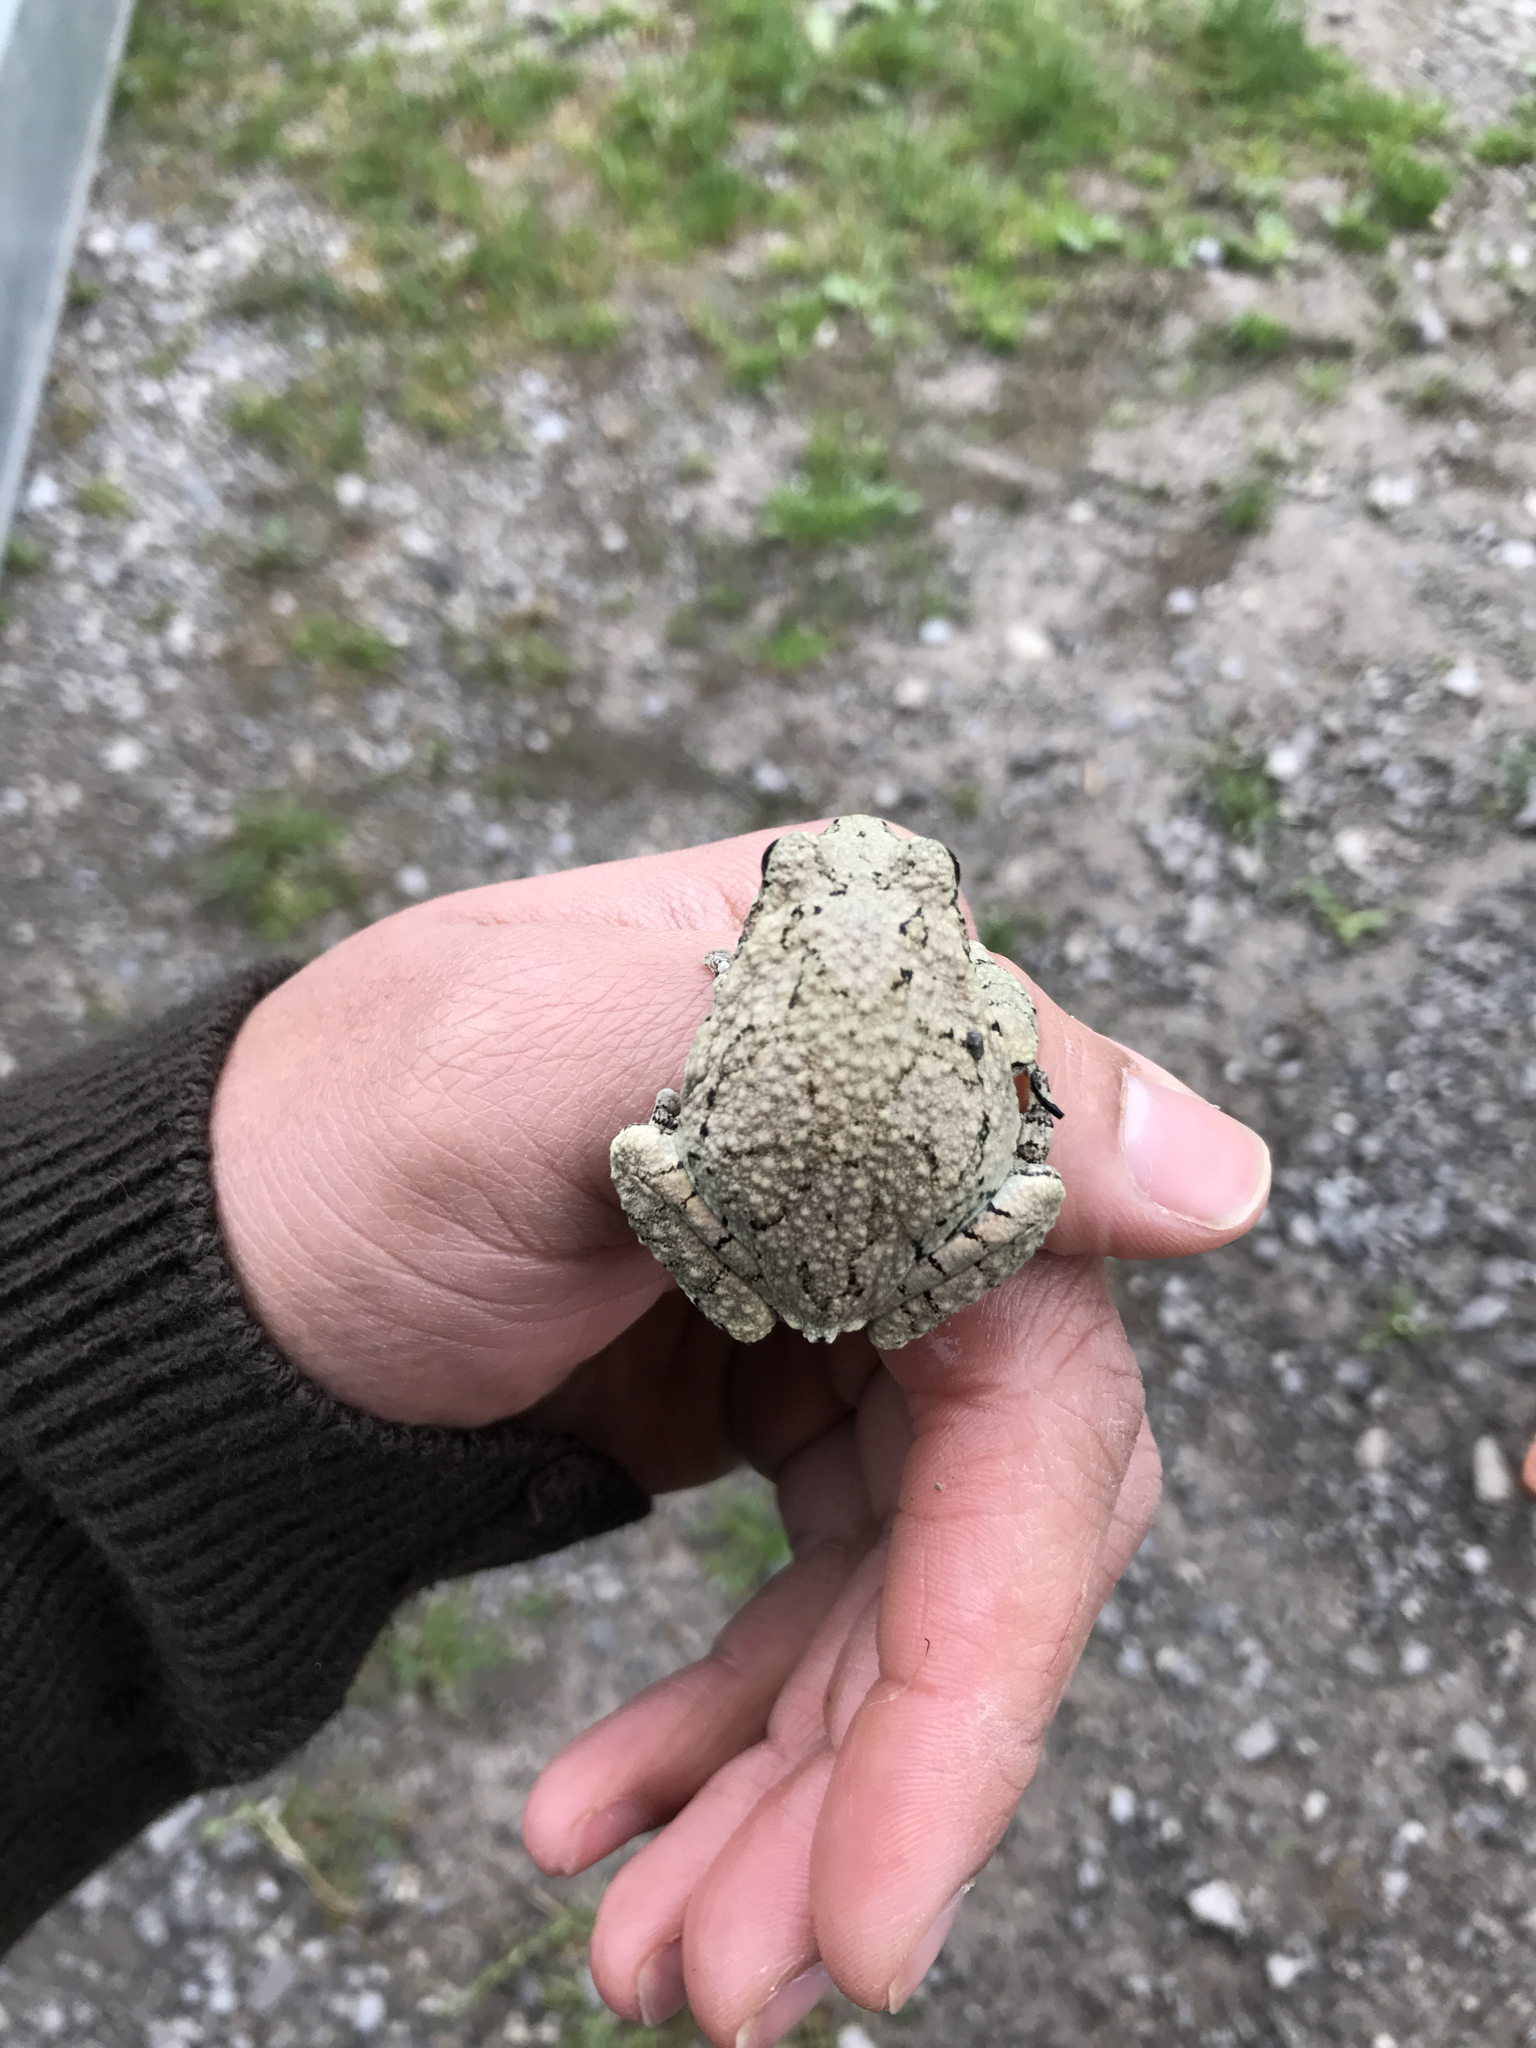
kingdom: Animalia
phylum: Chordata
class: Amphibia
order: Anura
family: Hylidae
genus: Dryophytes
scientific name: Dryophytes versicolor
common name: Gray treefrog
